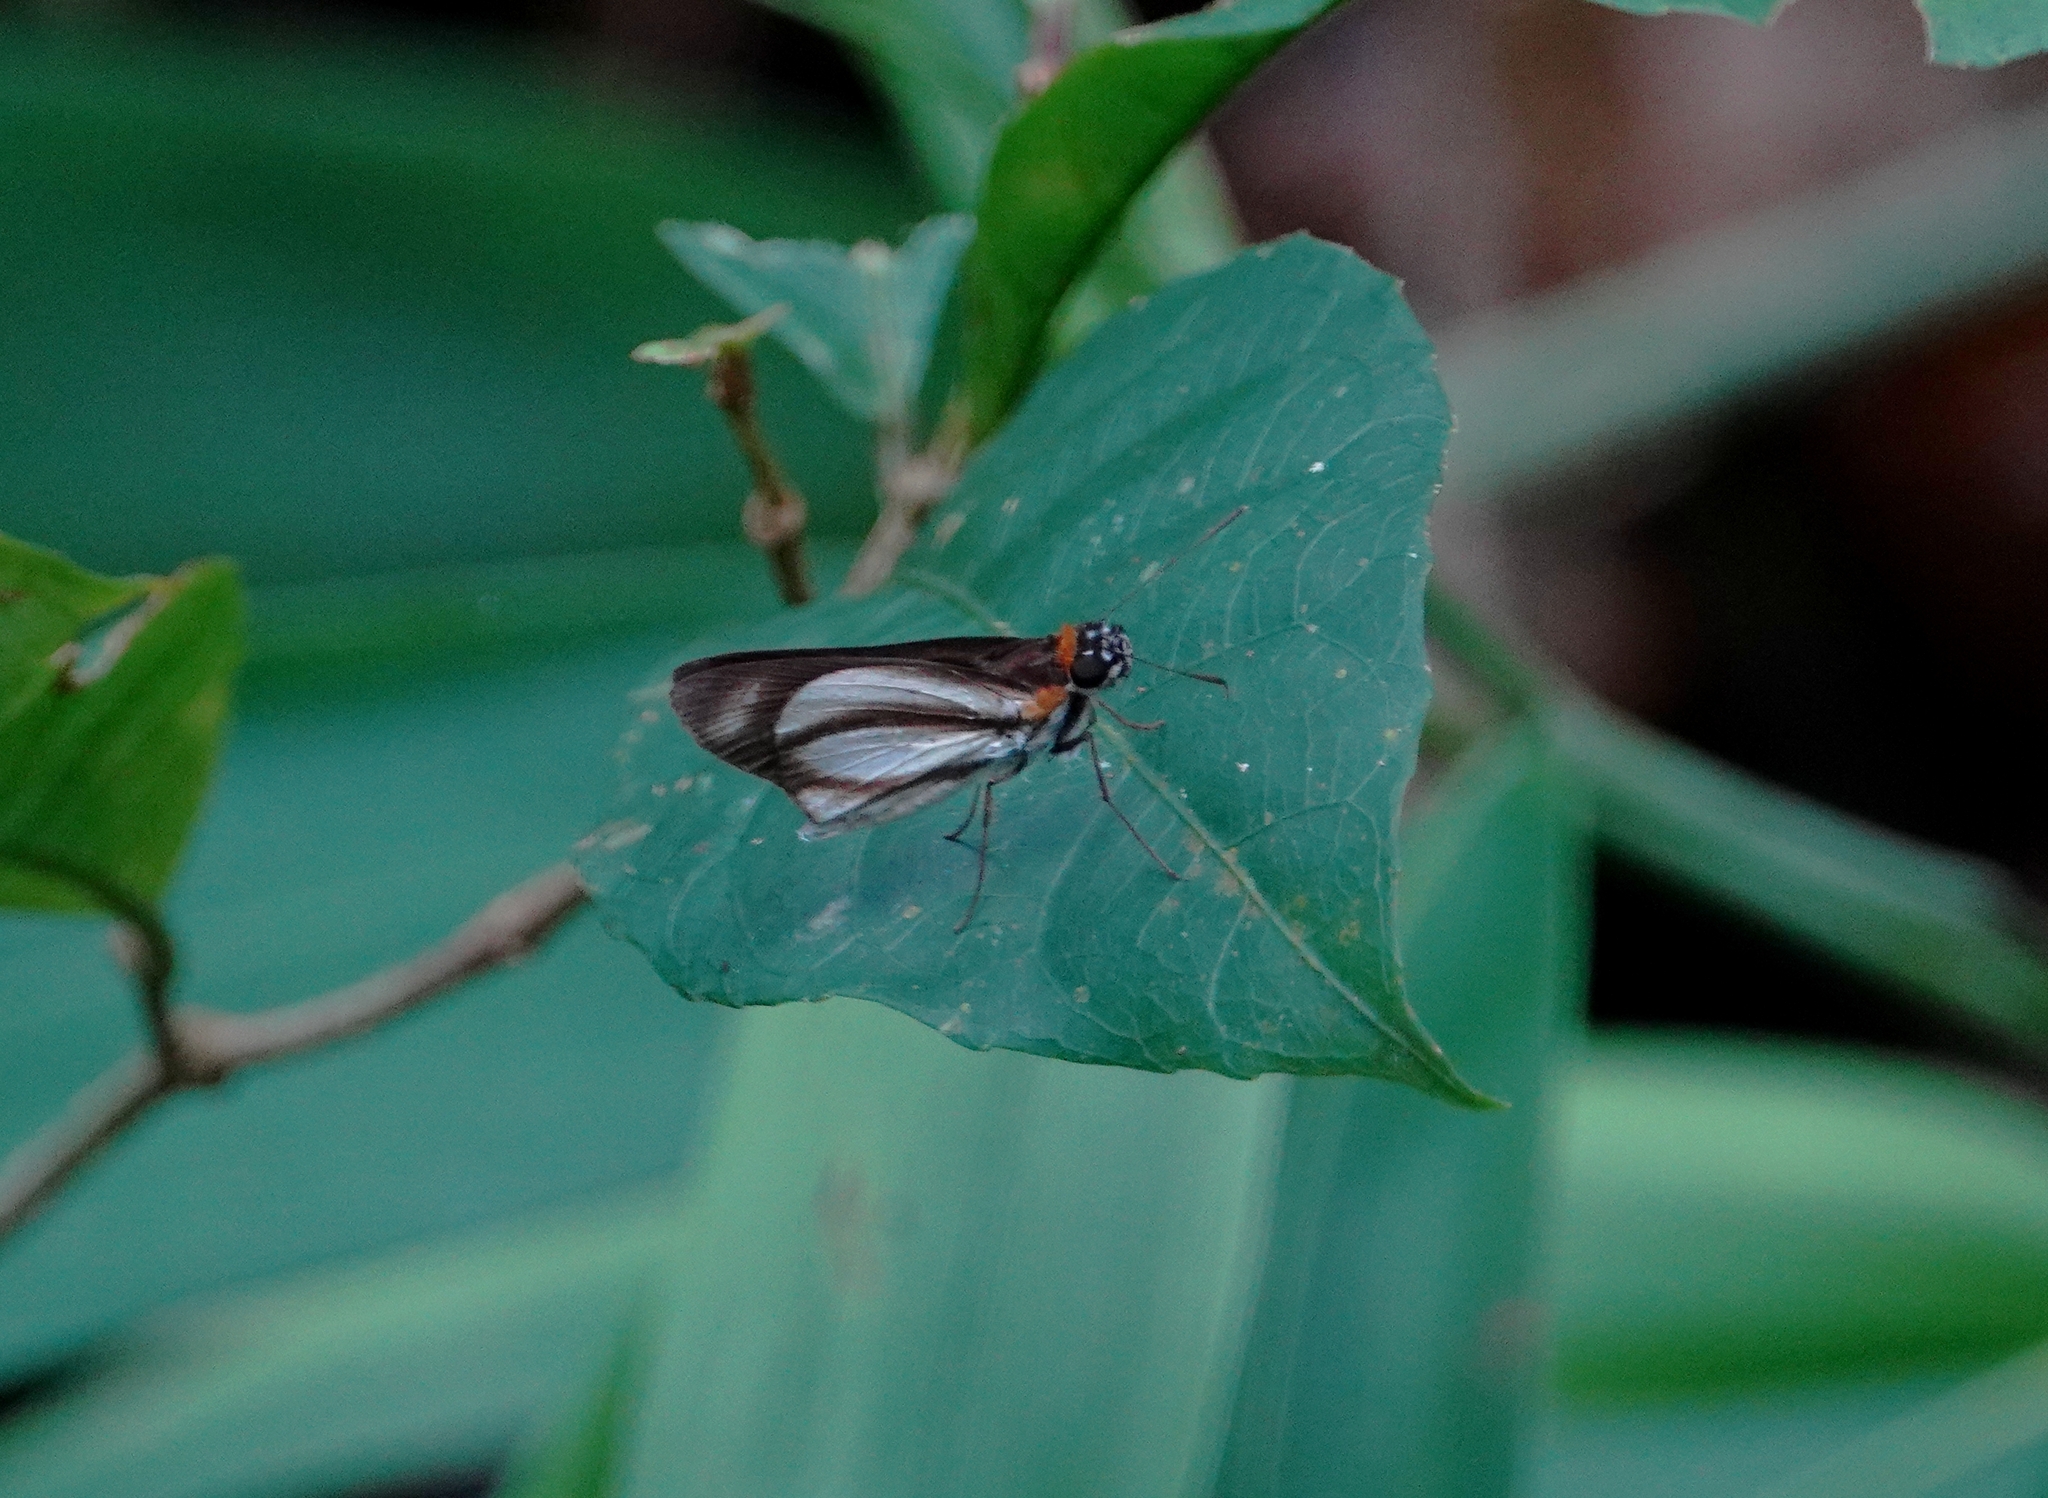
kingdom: Animalia
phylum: Arthropoda
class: Insecta
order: Lepidoptera
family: Hesperiidae
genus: Vettius
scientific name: Vettius marcus
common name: Marcus skipper
